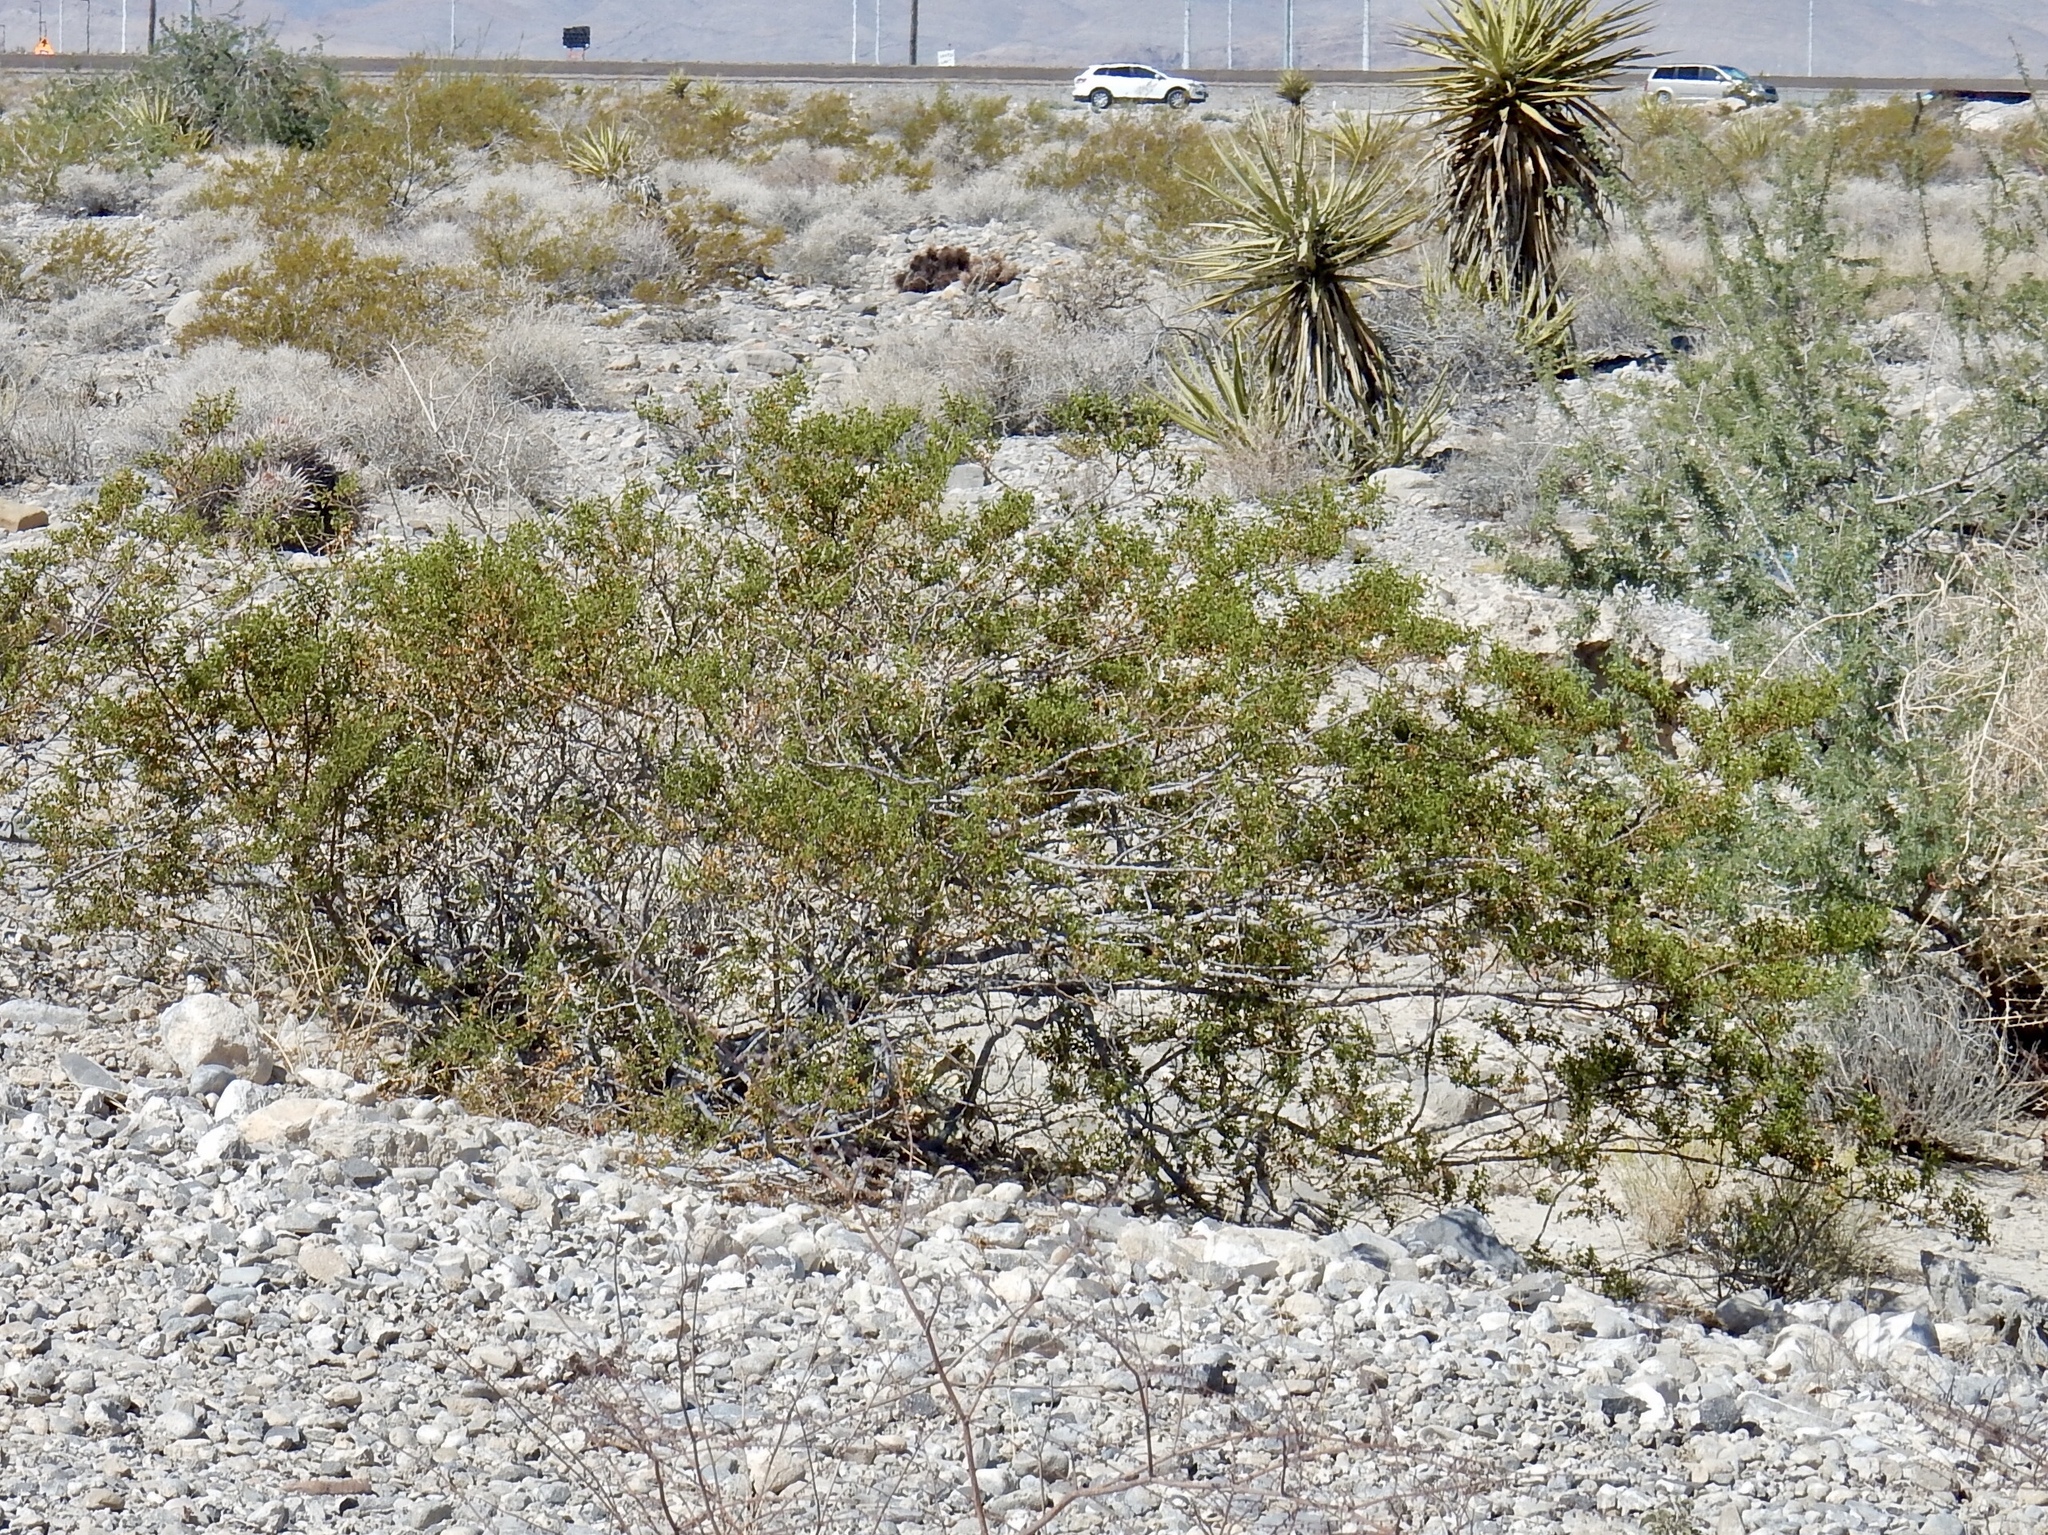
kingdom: Plantae
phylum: Tracheophyta
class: Magnoliopsida
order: Zygophyllales
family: Zygophyllaceae
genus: Larrea
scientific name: Larrea tridentata
